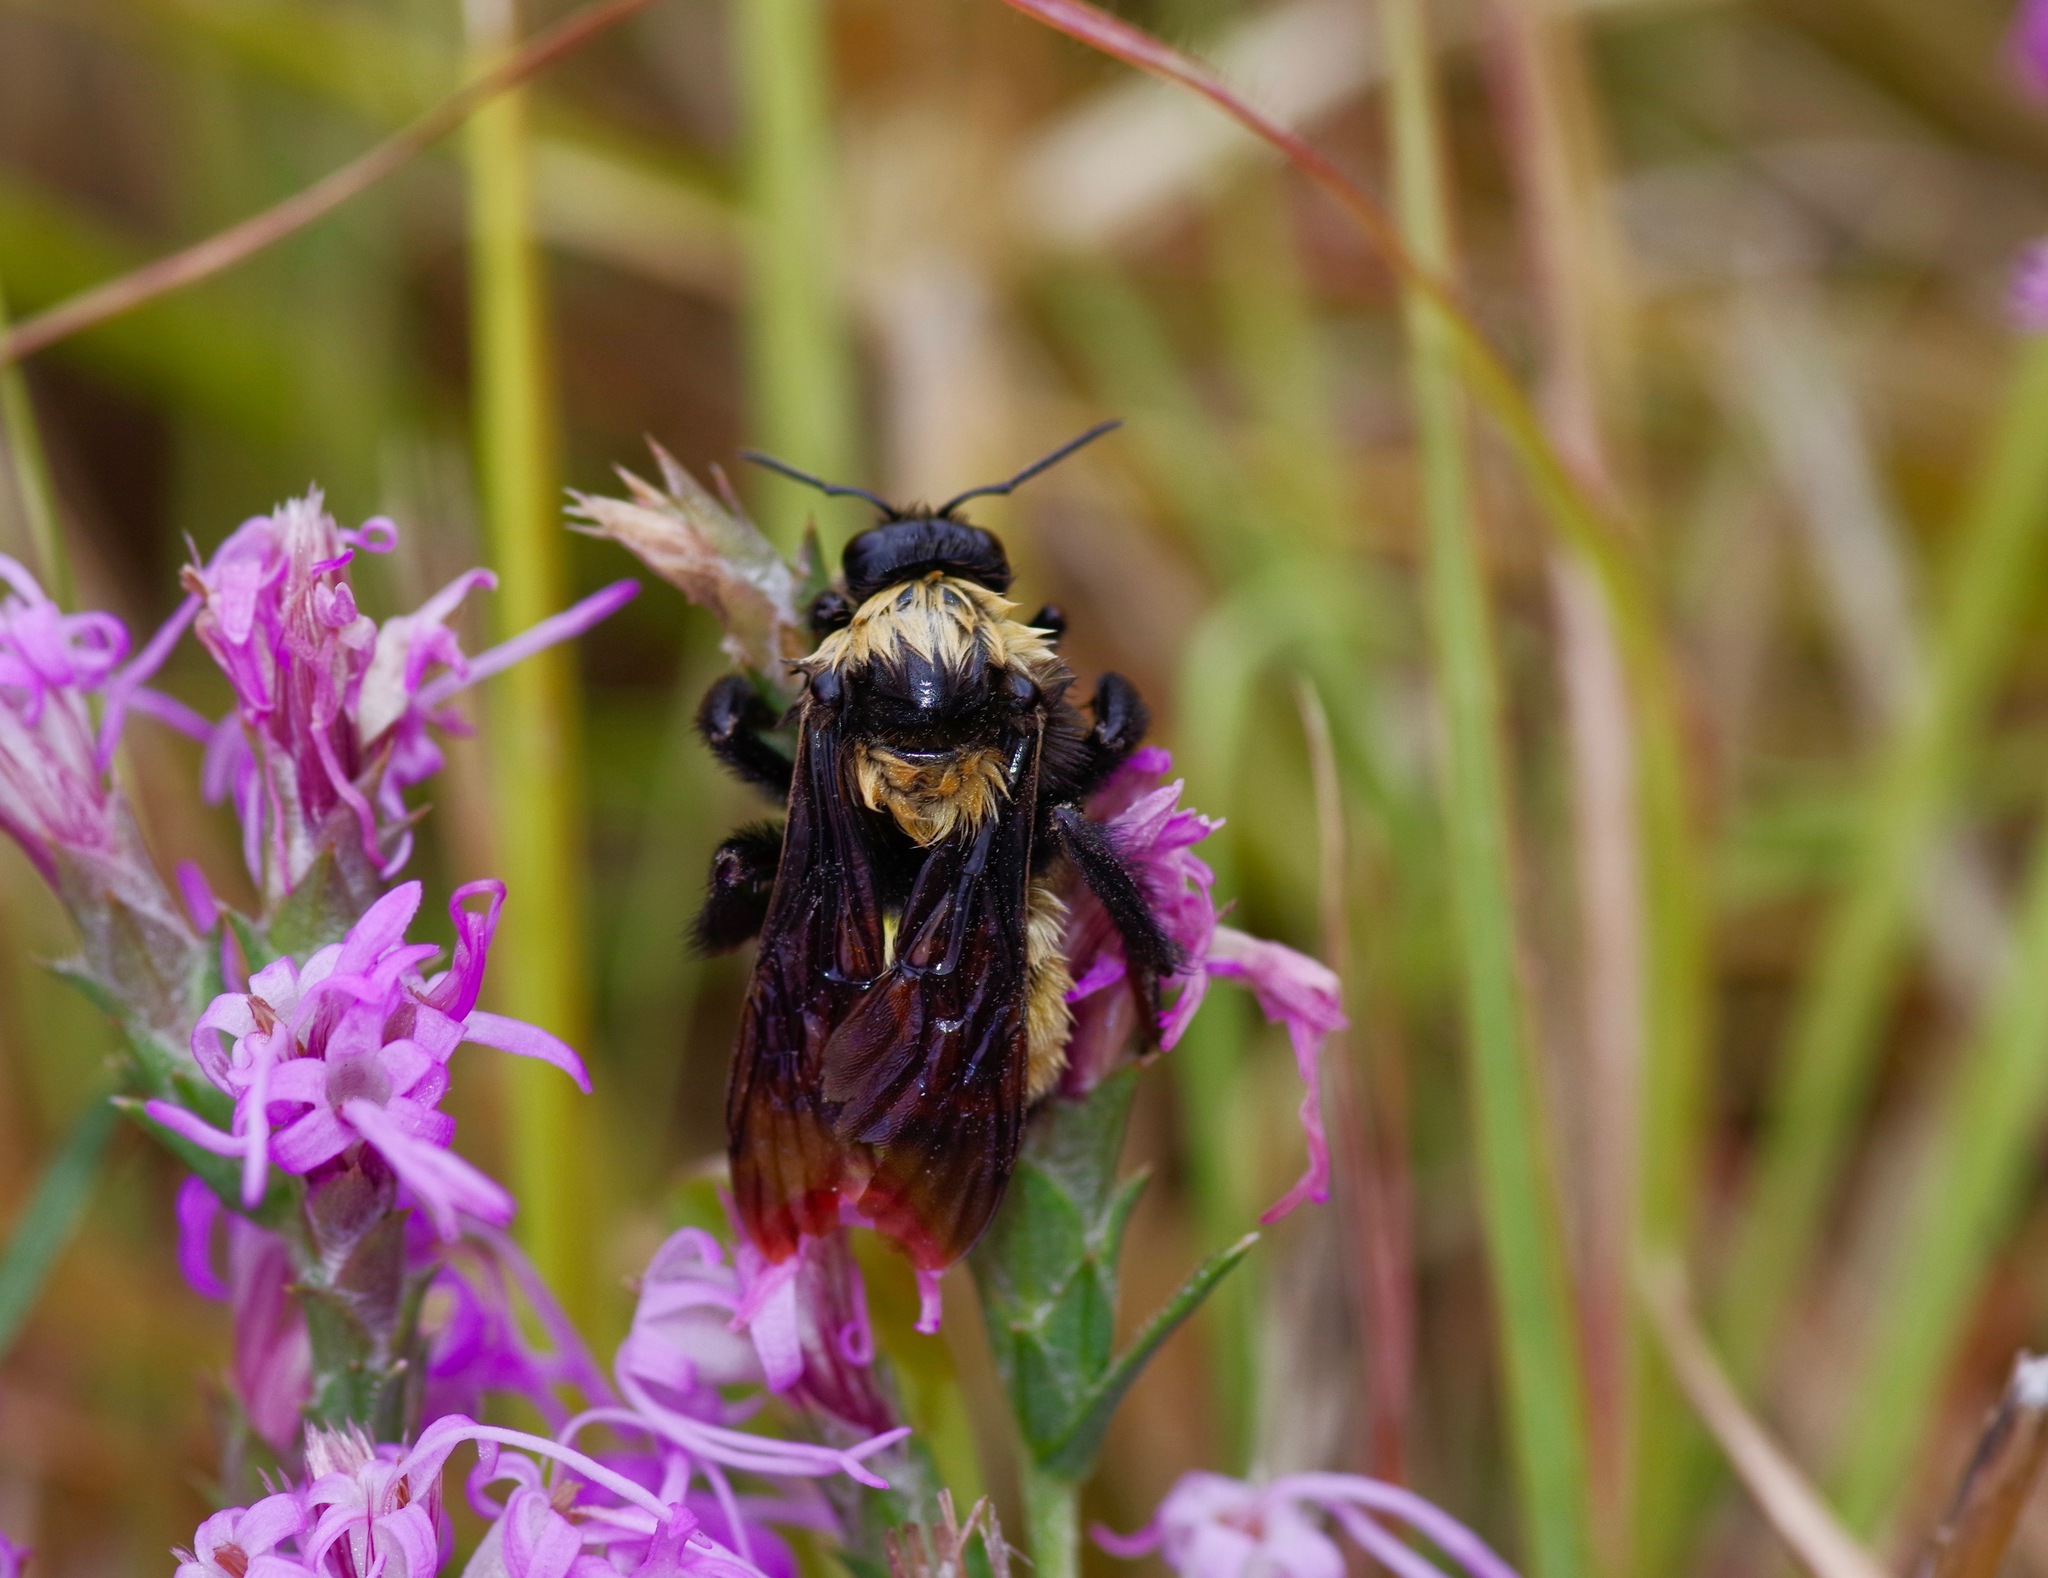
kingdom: Animalia
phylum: Arthropoda
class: Insecta
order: Hymenoptera
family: Apidae
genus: Bombus
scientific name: Bombus sonorus
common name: Sonoran bumble bee
